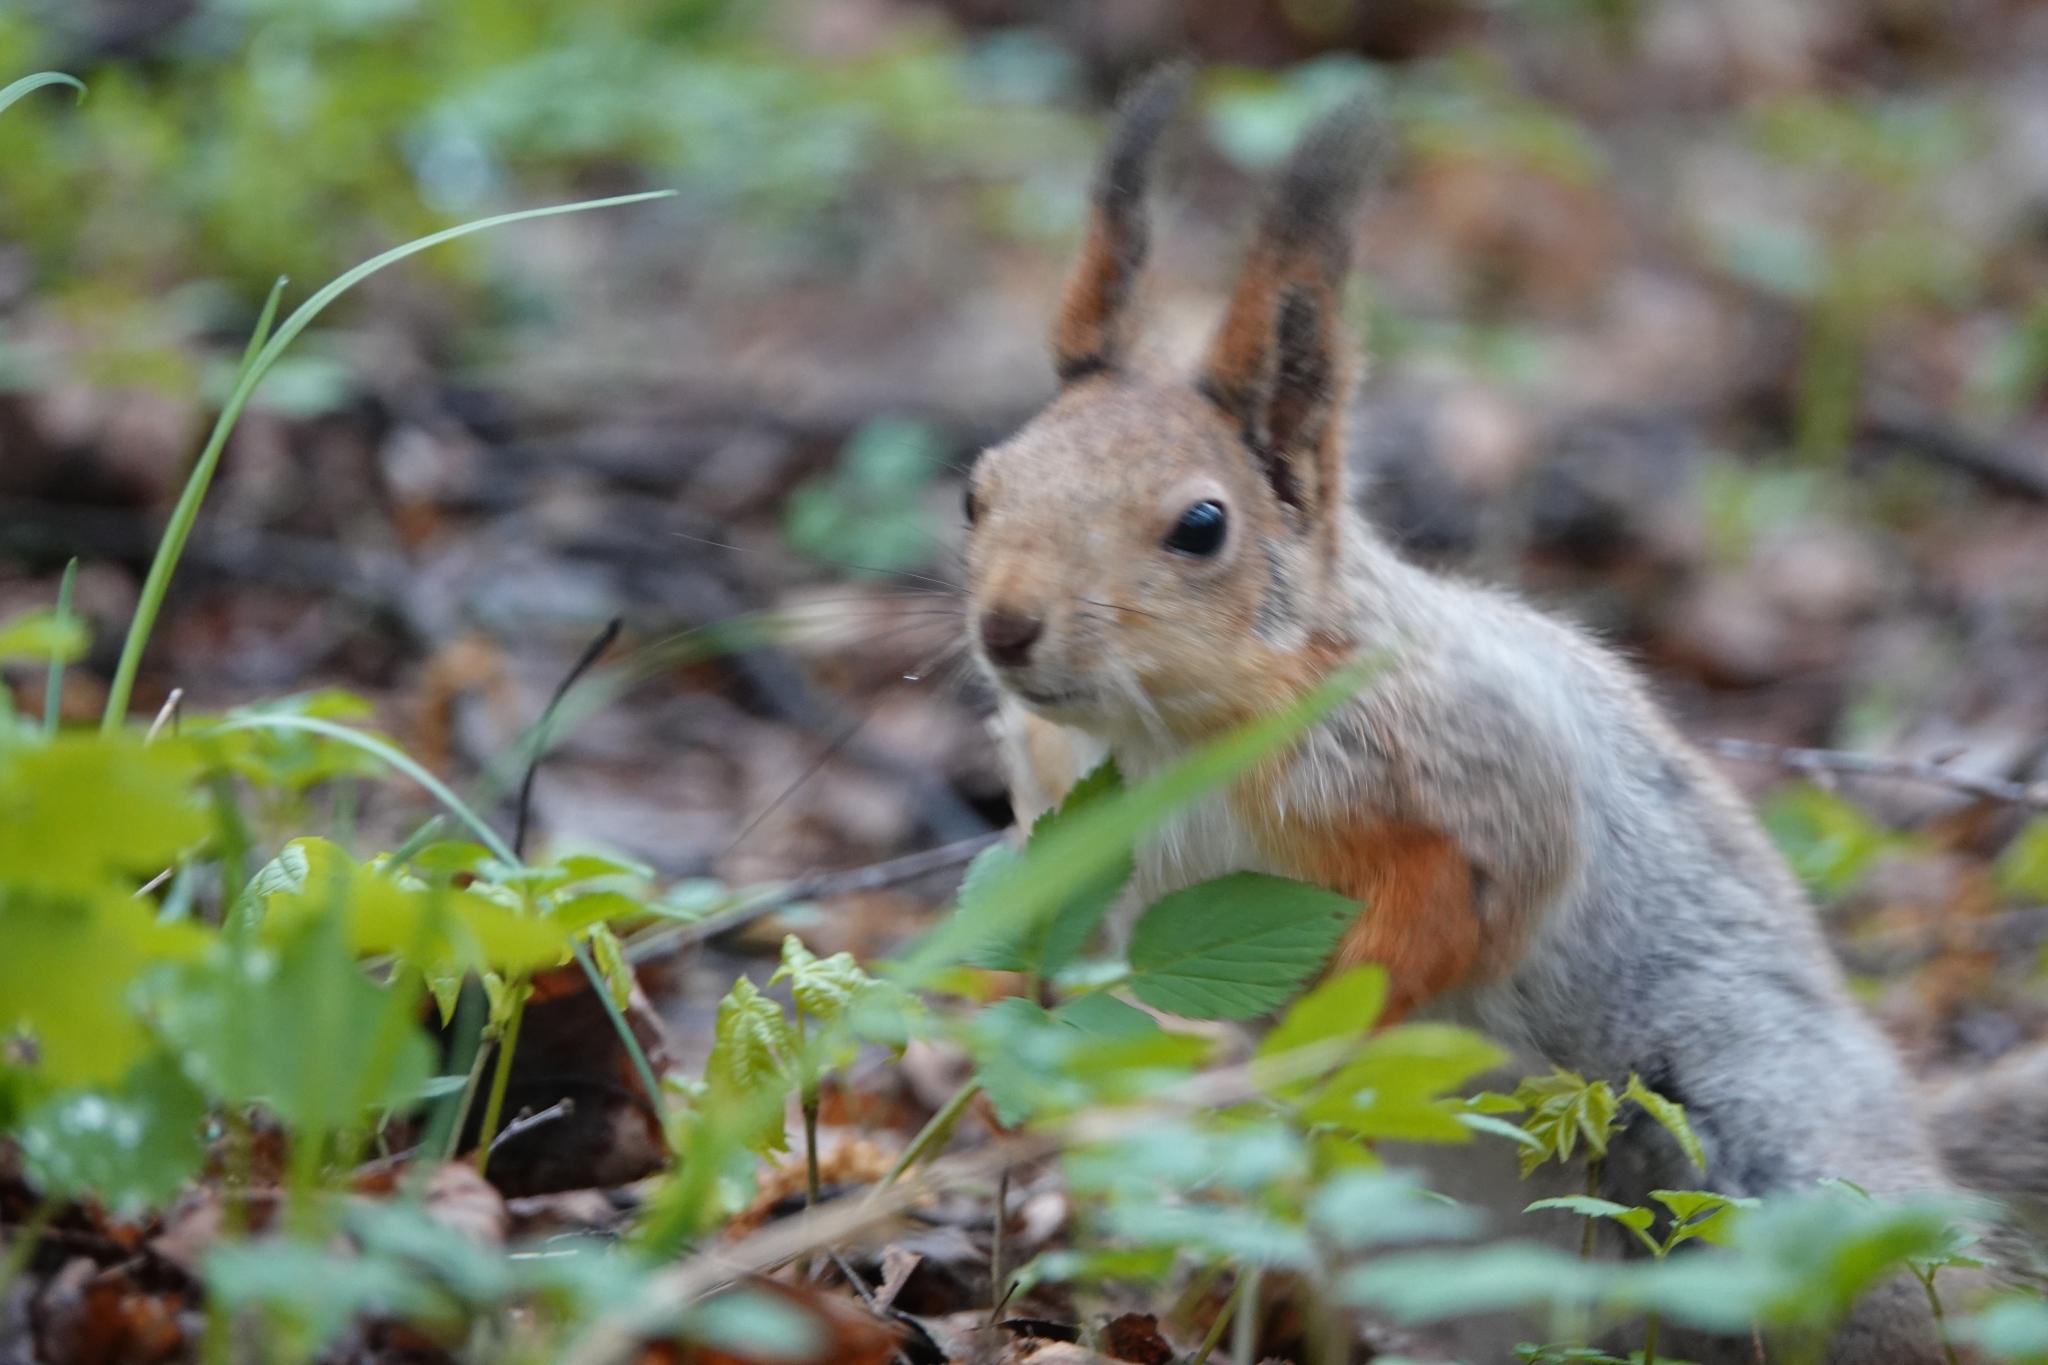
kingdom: Animalia
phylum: Chordata
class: Mammalia
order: Rodentia
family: Sciuridae
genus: Sciurus
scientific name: Sciurus vulgaris
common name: Eurasian red squirrel
